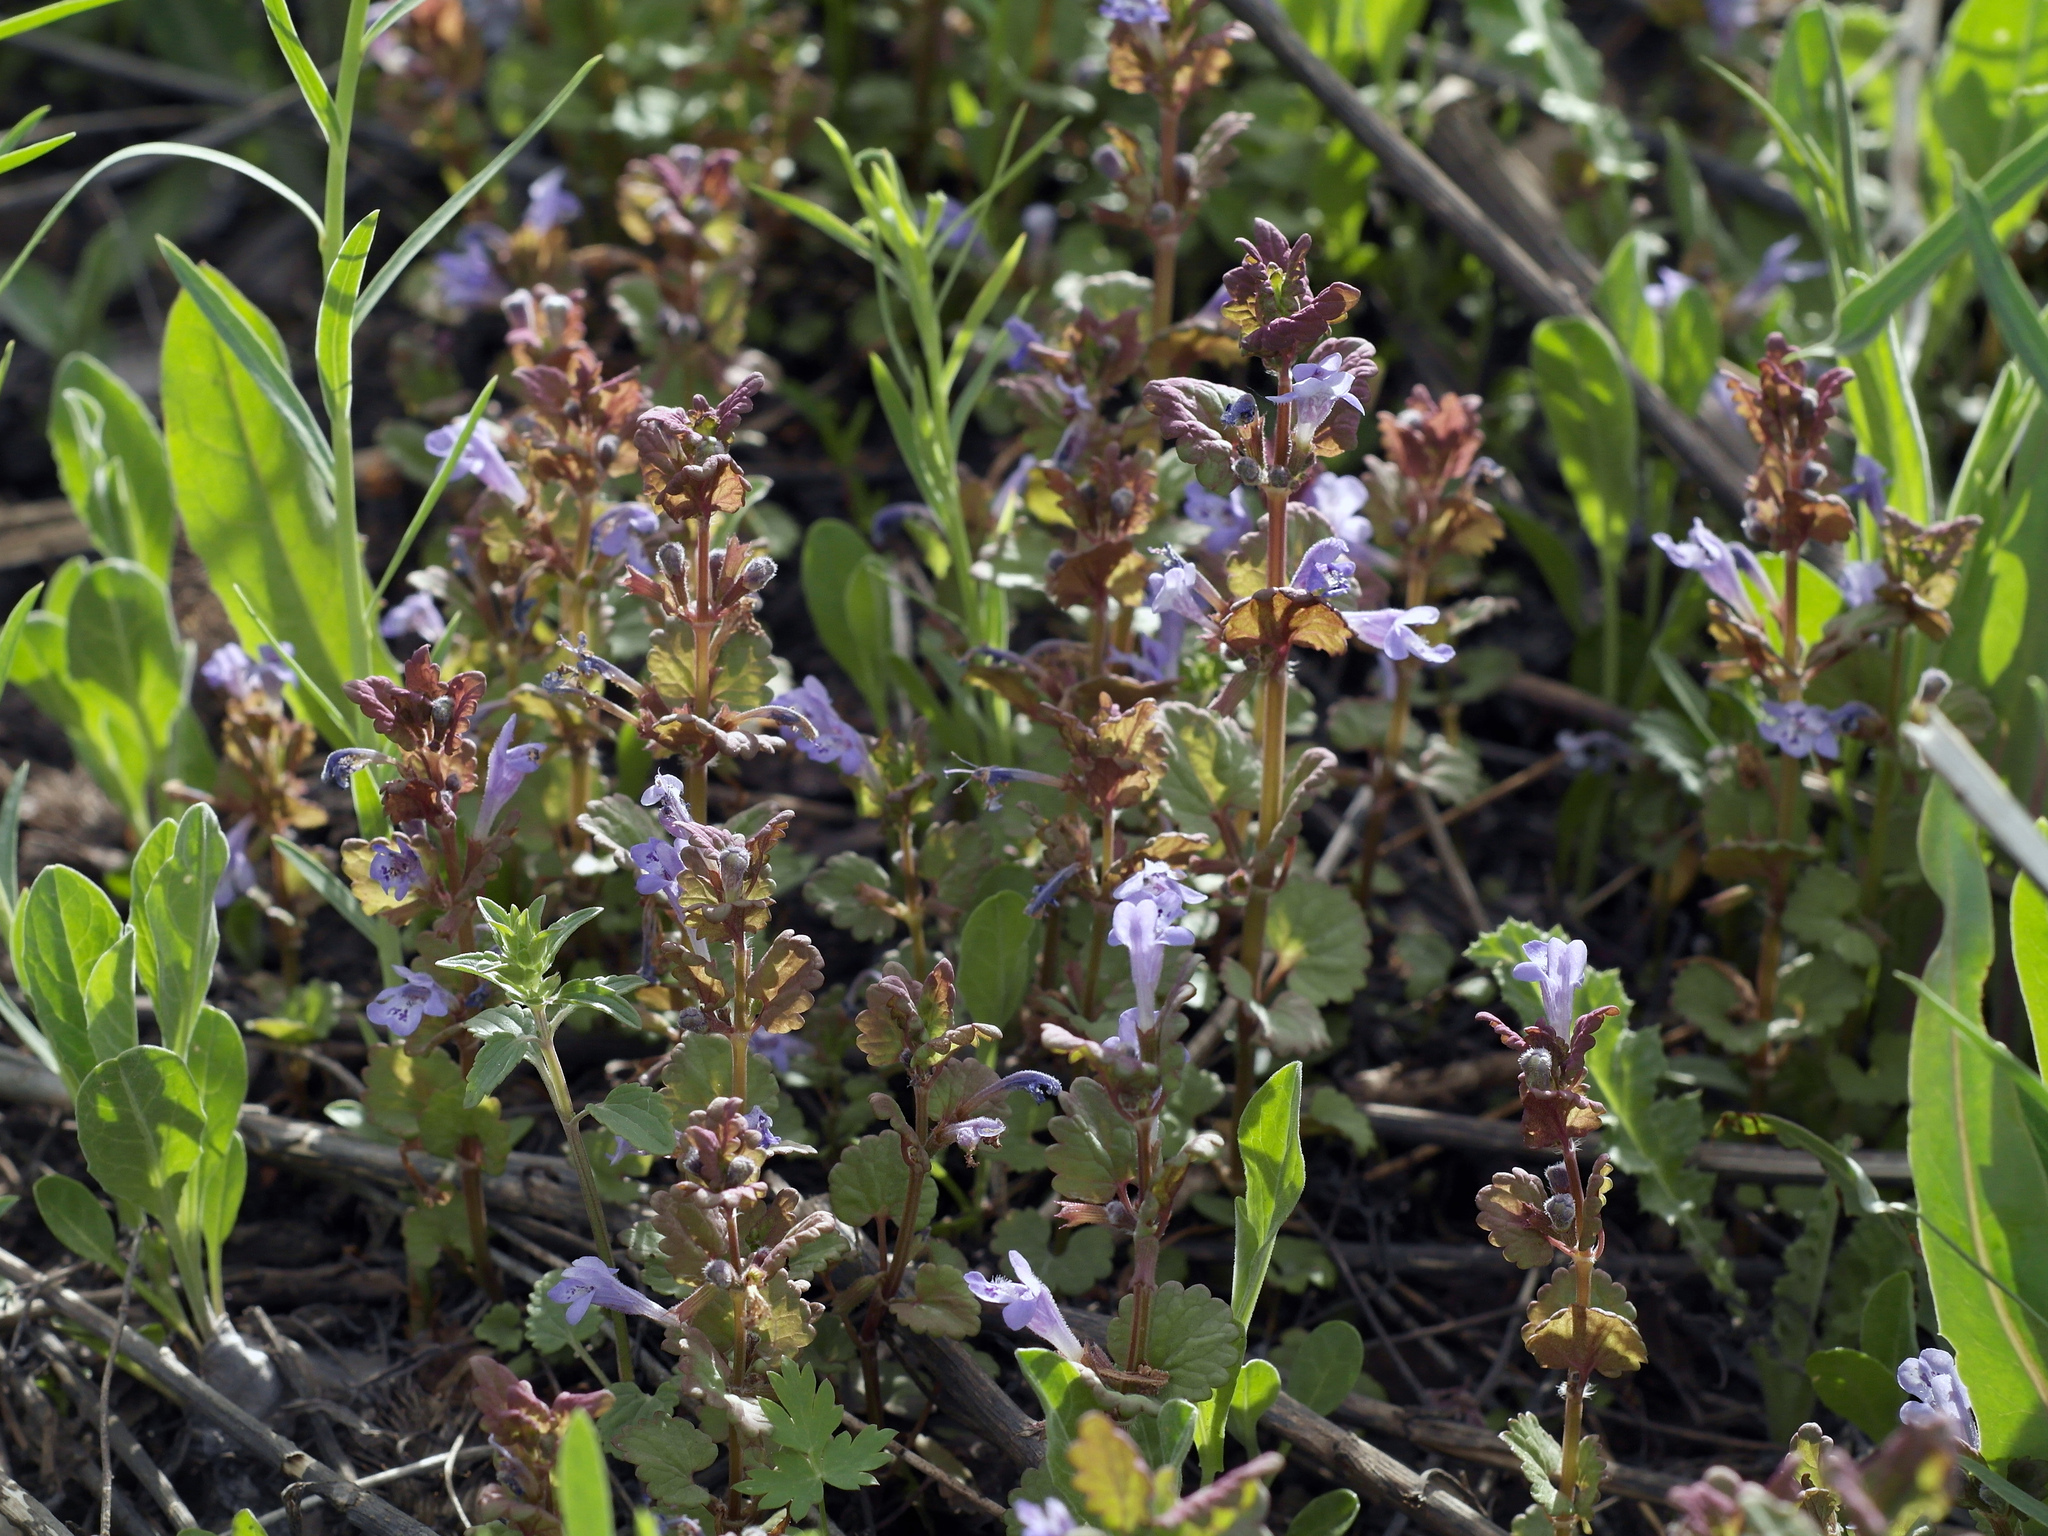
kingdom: Plantae
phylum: Tracheophyta
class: Magnoliopsida
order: Lamiales
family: Lamiaceae
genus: Glechoma
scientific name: Glechoma hederacea
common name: Ground ivy
